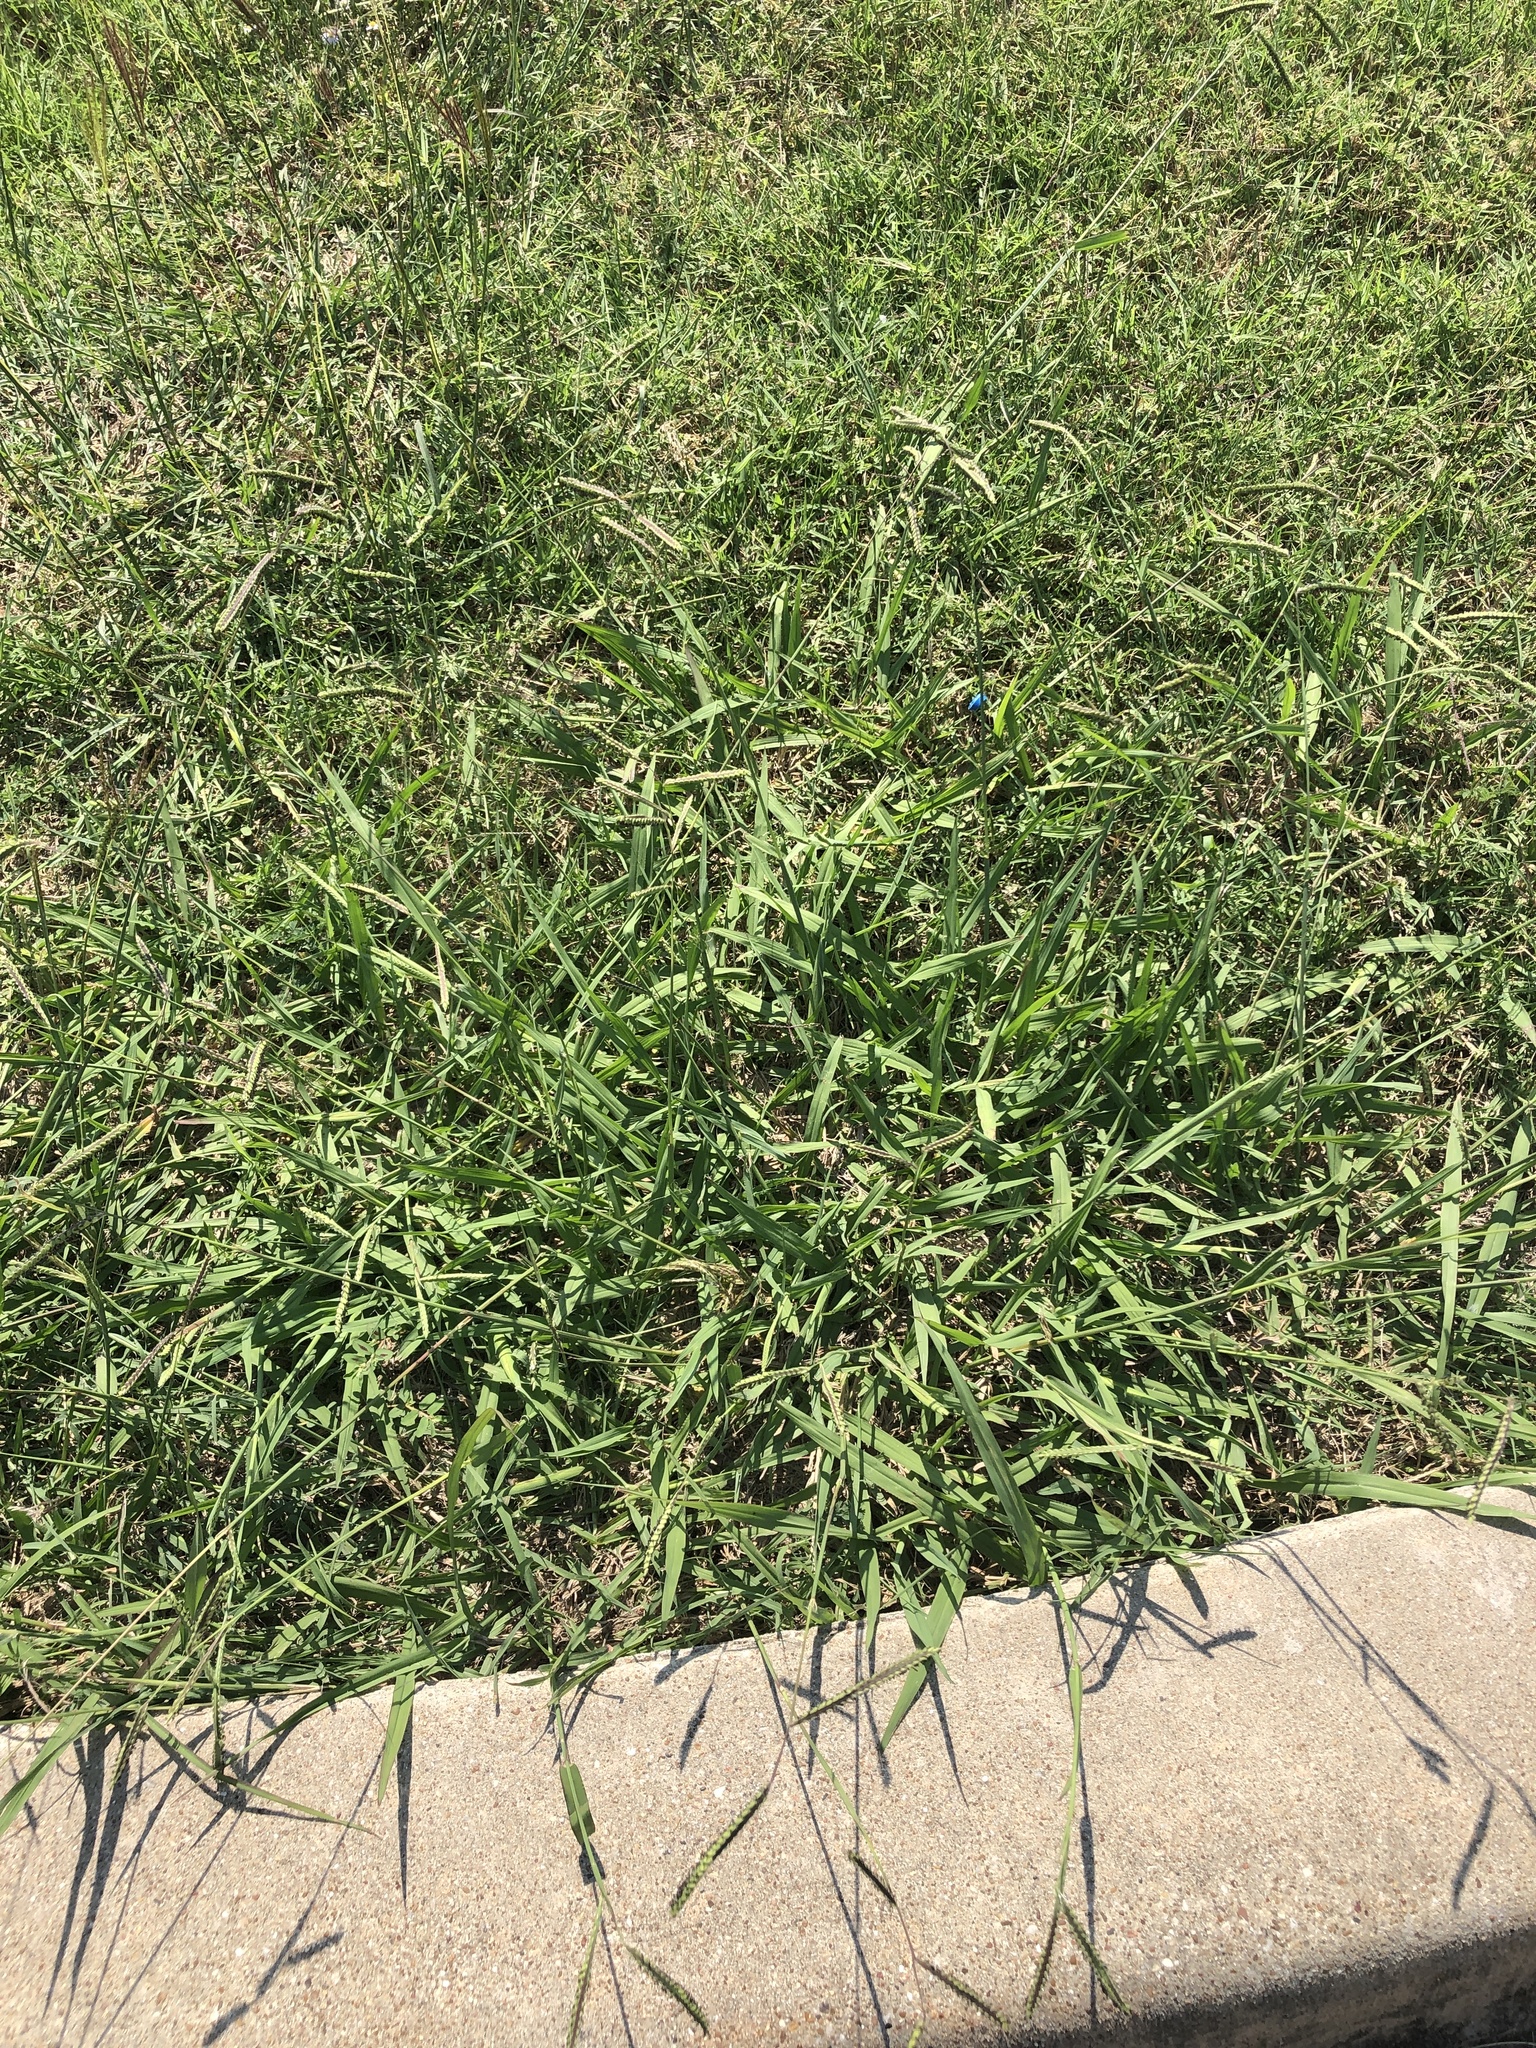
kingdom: Plantae
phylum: Tracheophyta
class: Liliopsida
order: Poales
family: Poaceae
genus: Paspalum
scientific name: Paspalum dilatatum
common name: Dallisgrass
